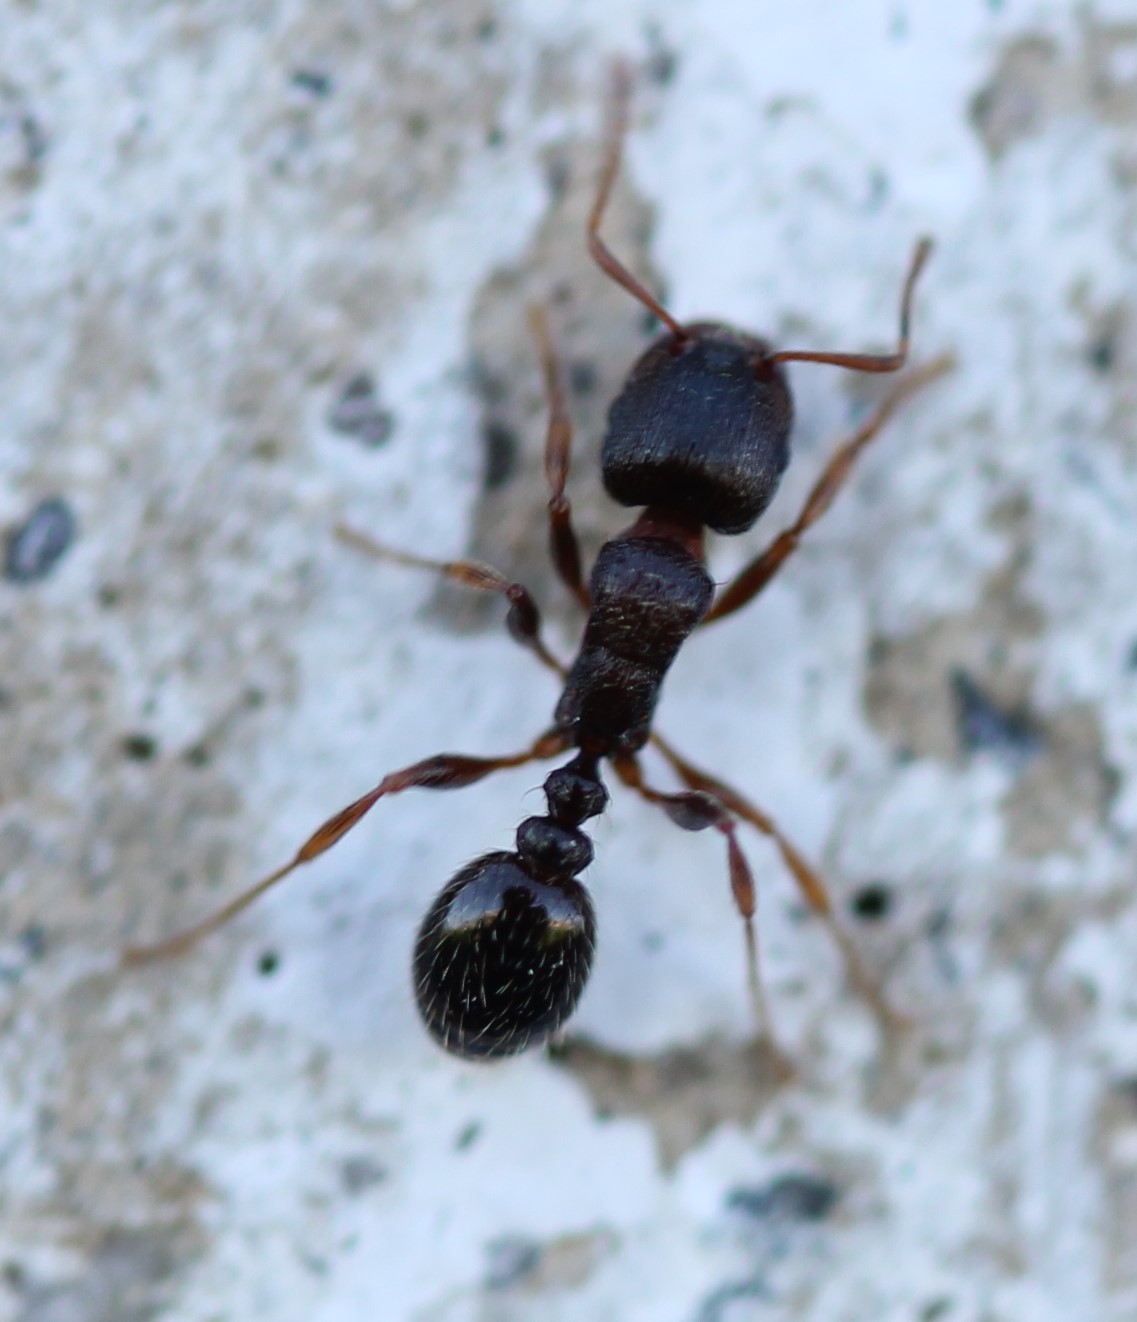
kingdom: Animalia
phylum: Arthropoda
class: Insecta
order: Hymenoptera
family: Formicidae
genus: Tetramorium
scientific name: Tetramorium immigrans
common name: Pavement ant
